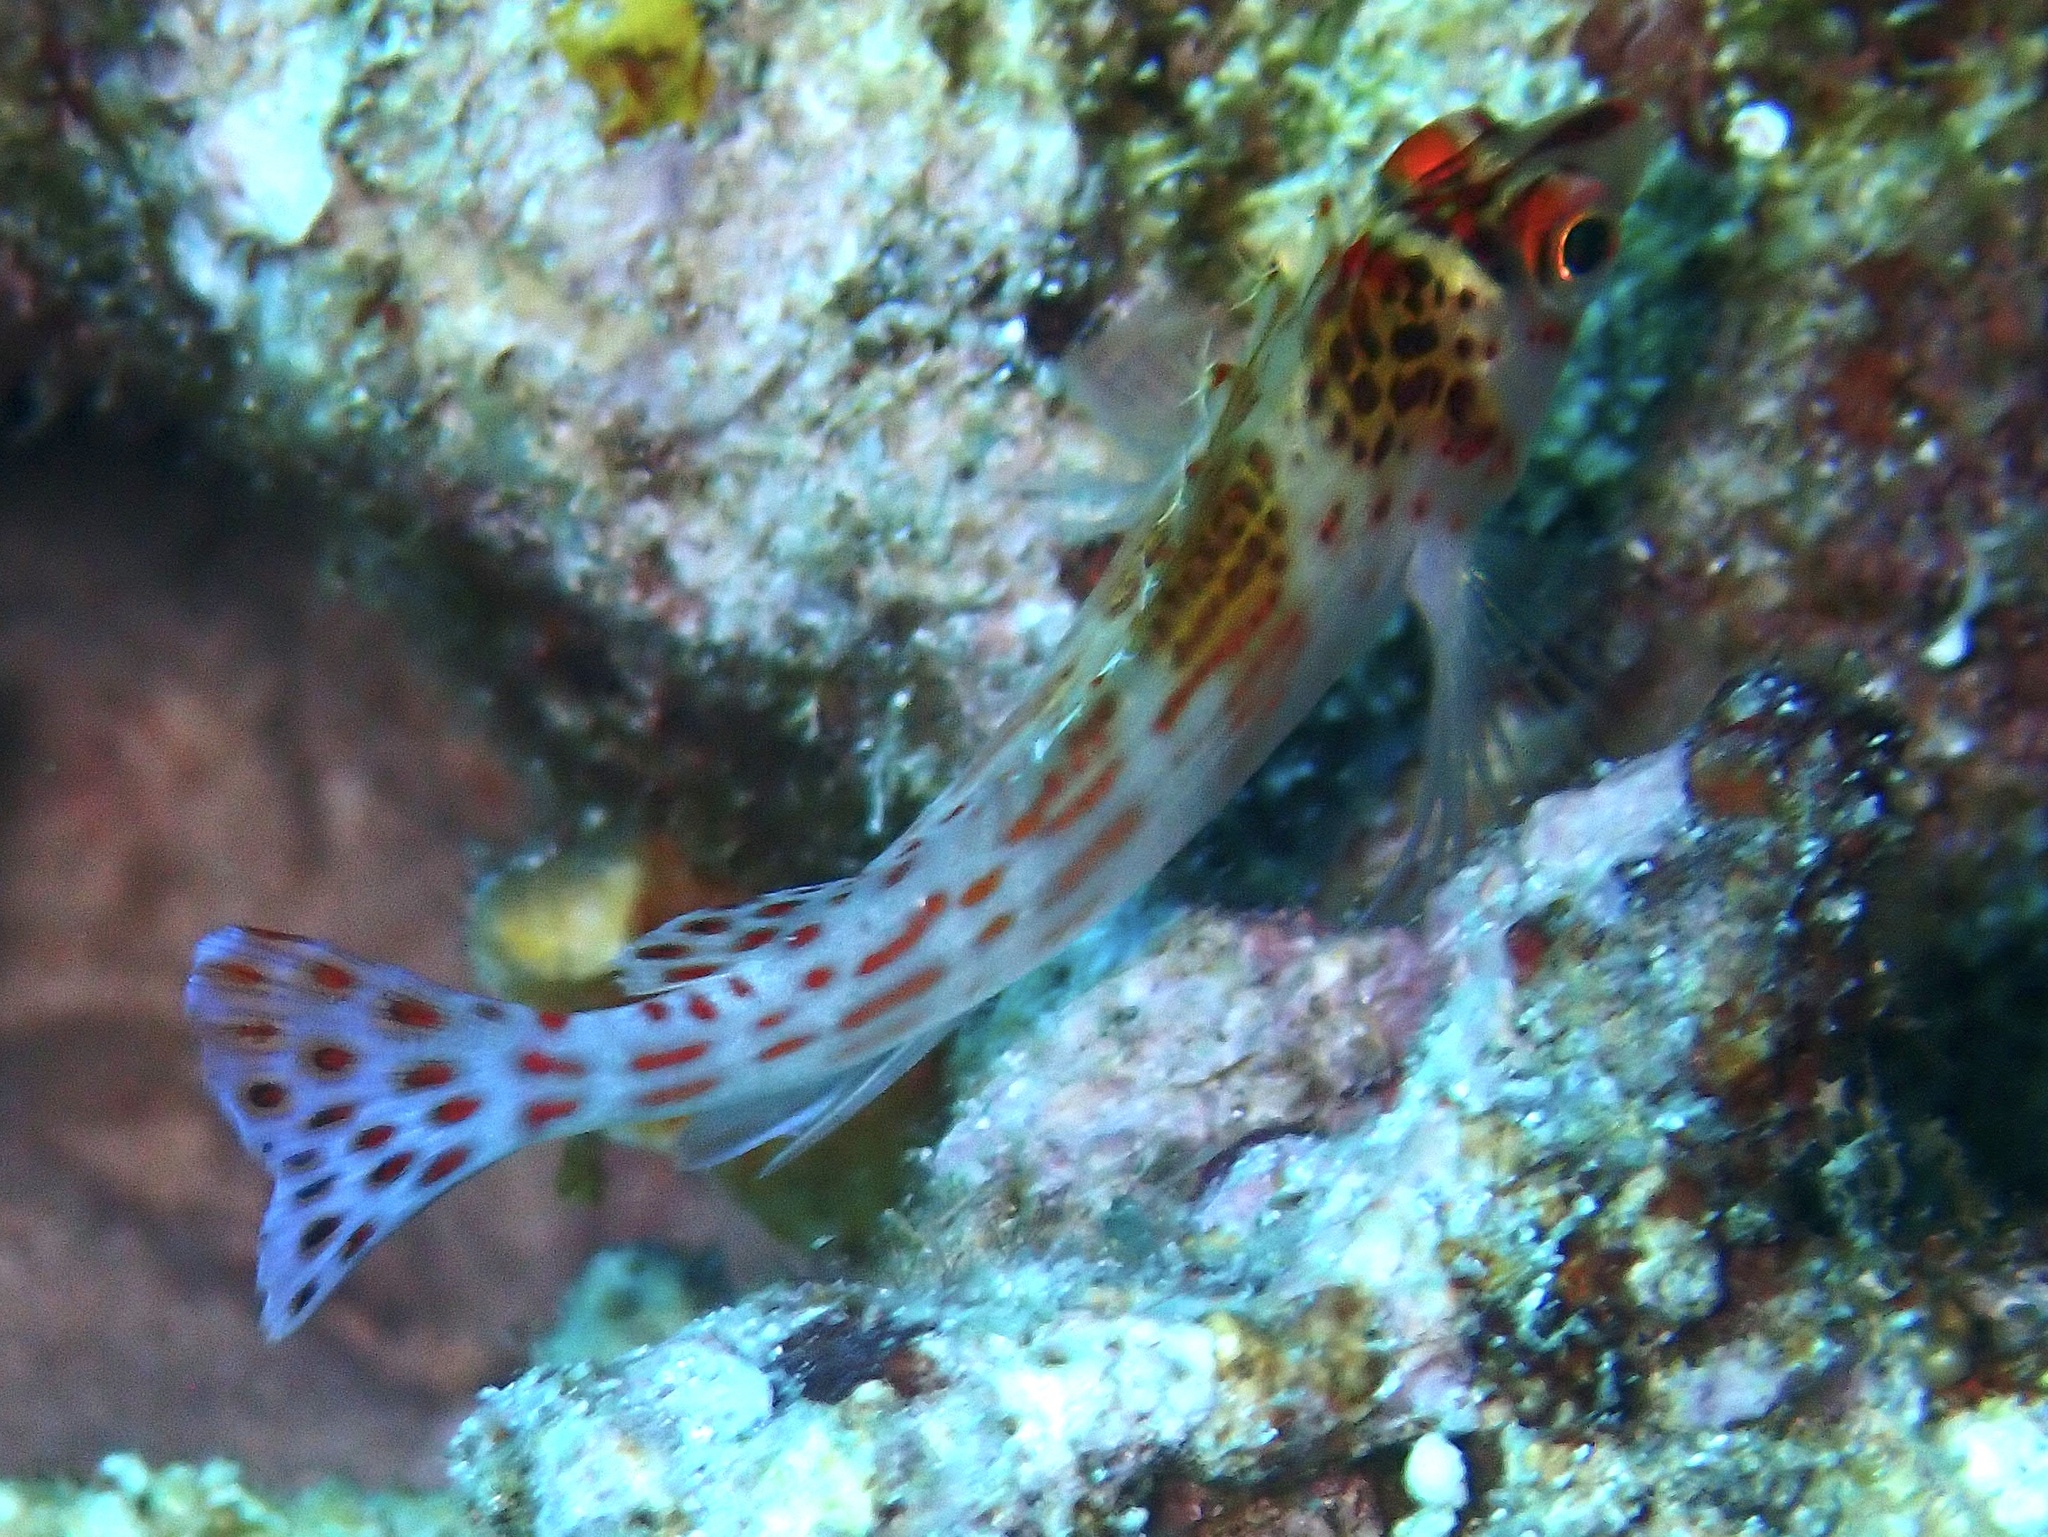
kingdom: Animalia
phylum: Chordata
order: Perciformes
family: Cirrhitidae
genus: Cirrhitichthys
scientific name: Cirrhitichthys falco
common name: Coral hawkfish
